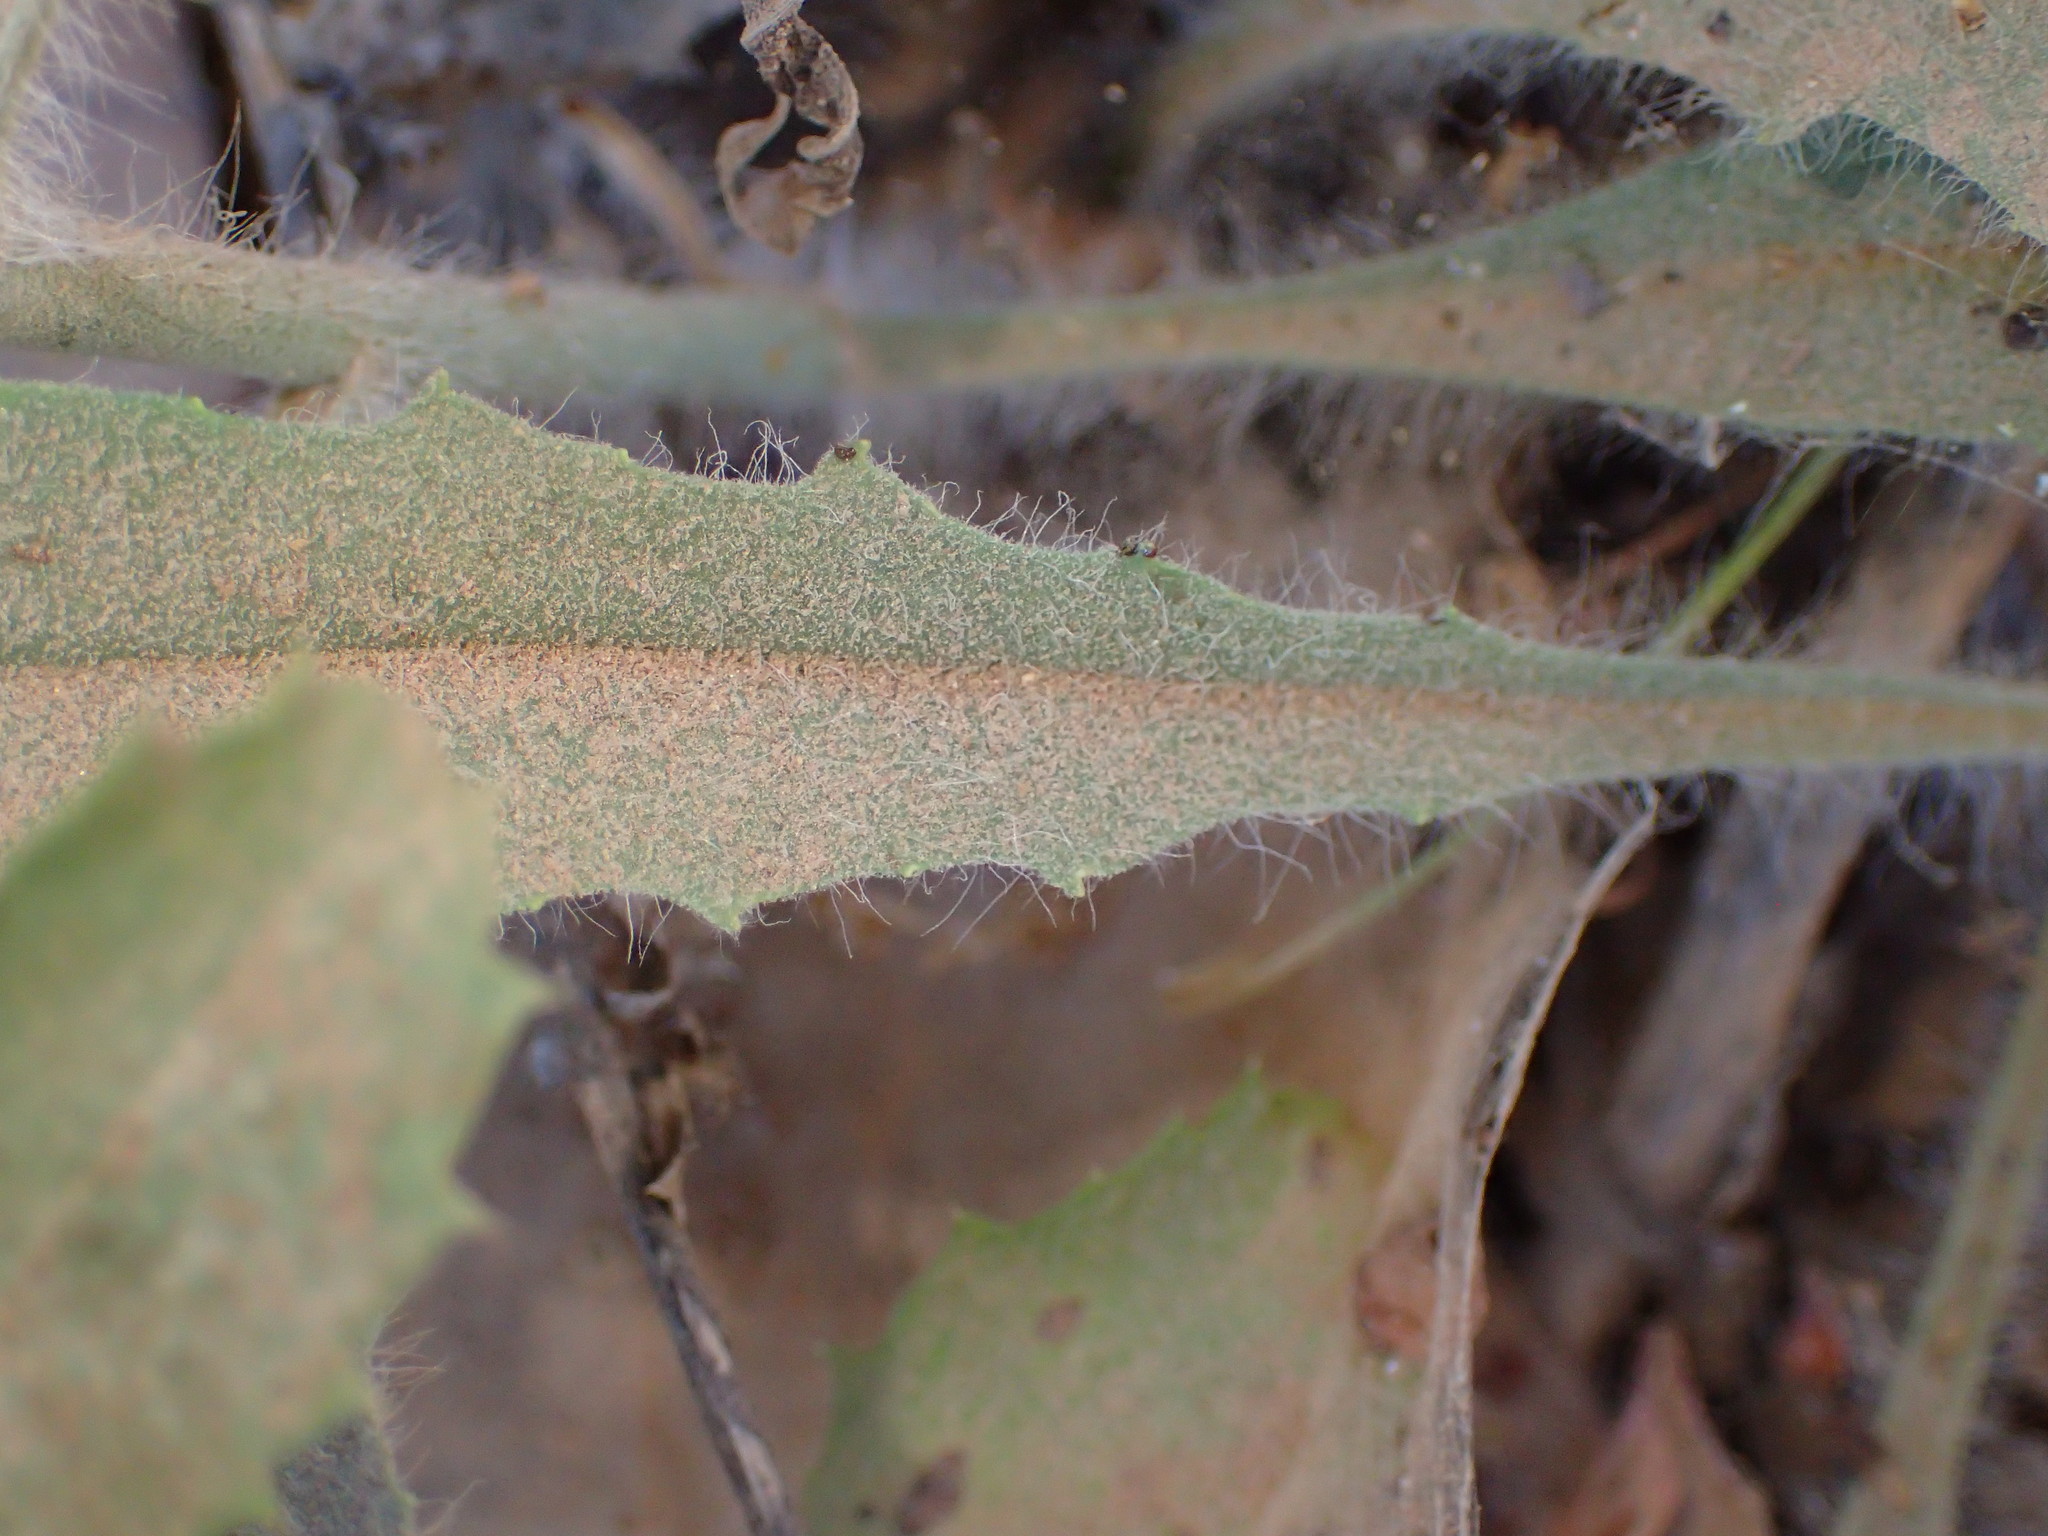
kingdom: Plantae
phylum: Tracheophyta
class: Magnoliopsida
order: Asterales
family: Asteraceae
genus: Hieracium
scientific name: Hieracium argutum
